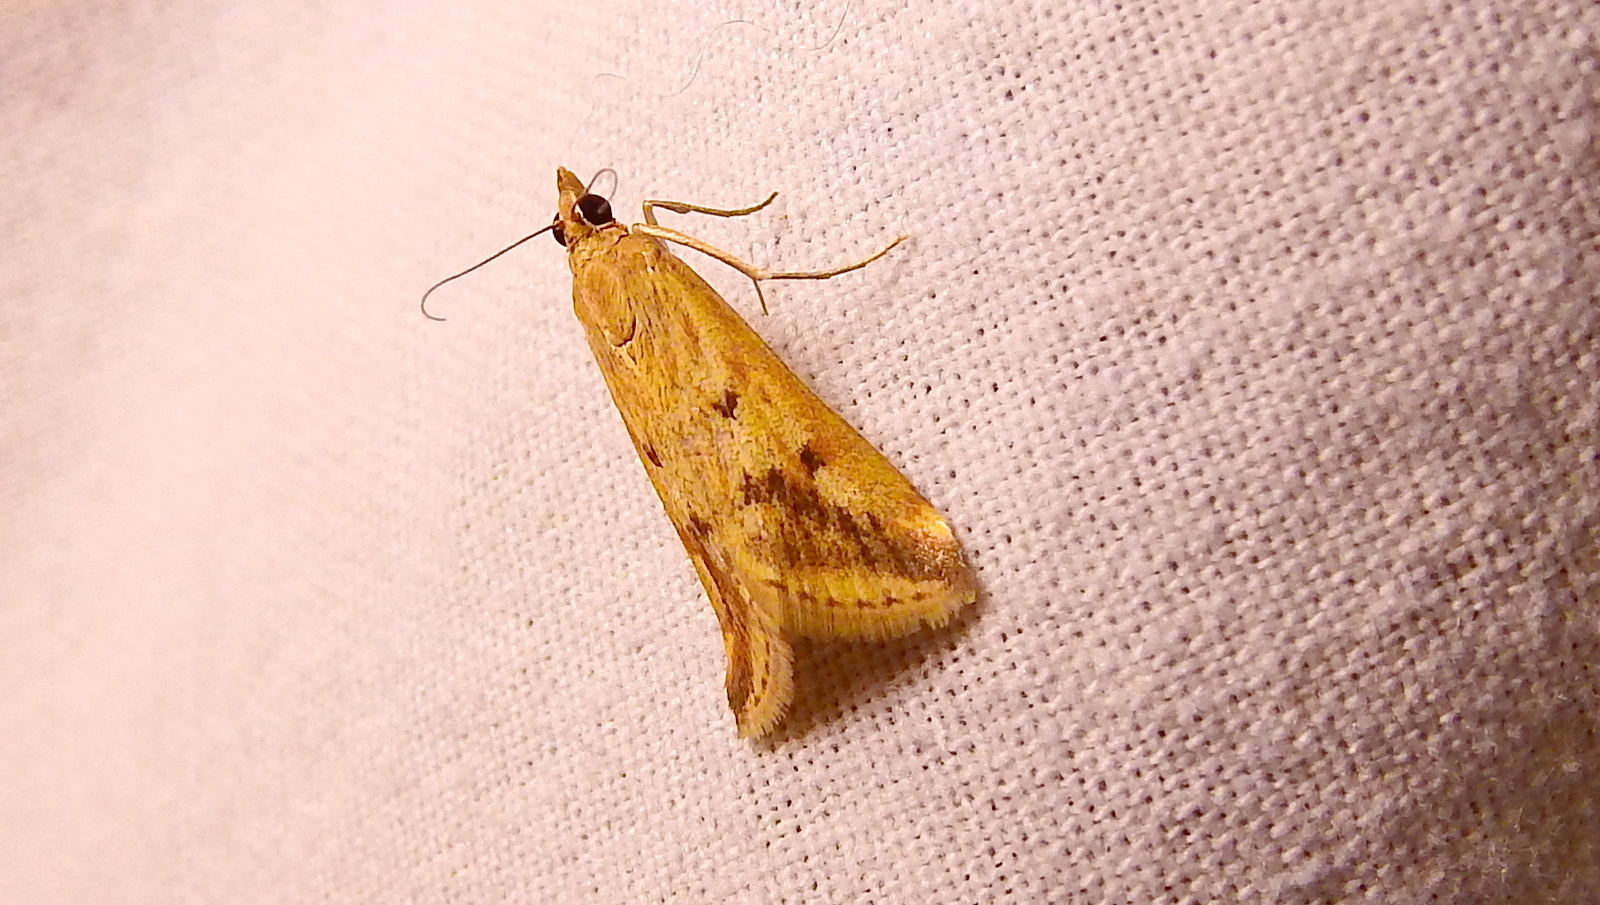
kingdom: Animalia
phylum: Arthropoda
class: Insecta
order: Lepidoptera
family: Crambidae
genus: Achyra
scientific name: Achyra bifidalis
